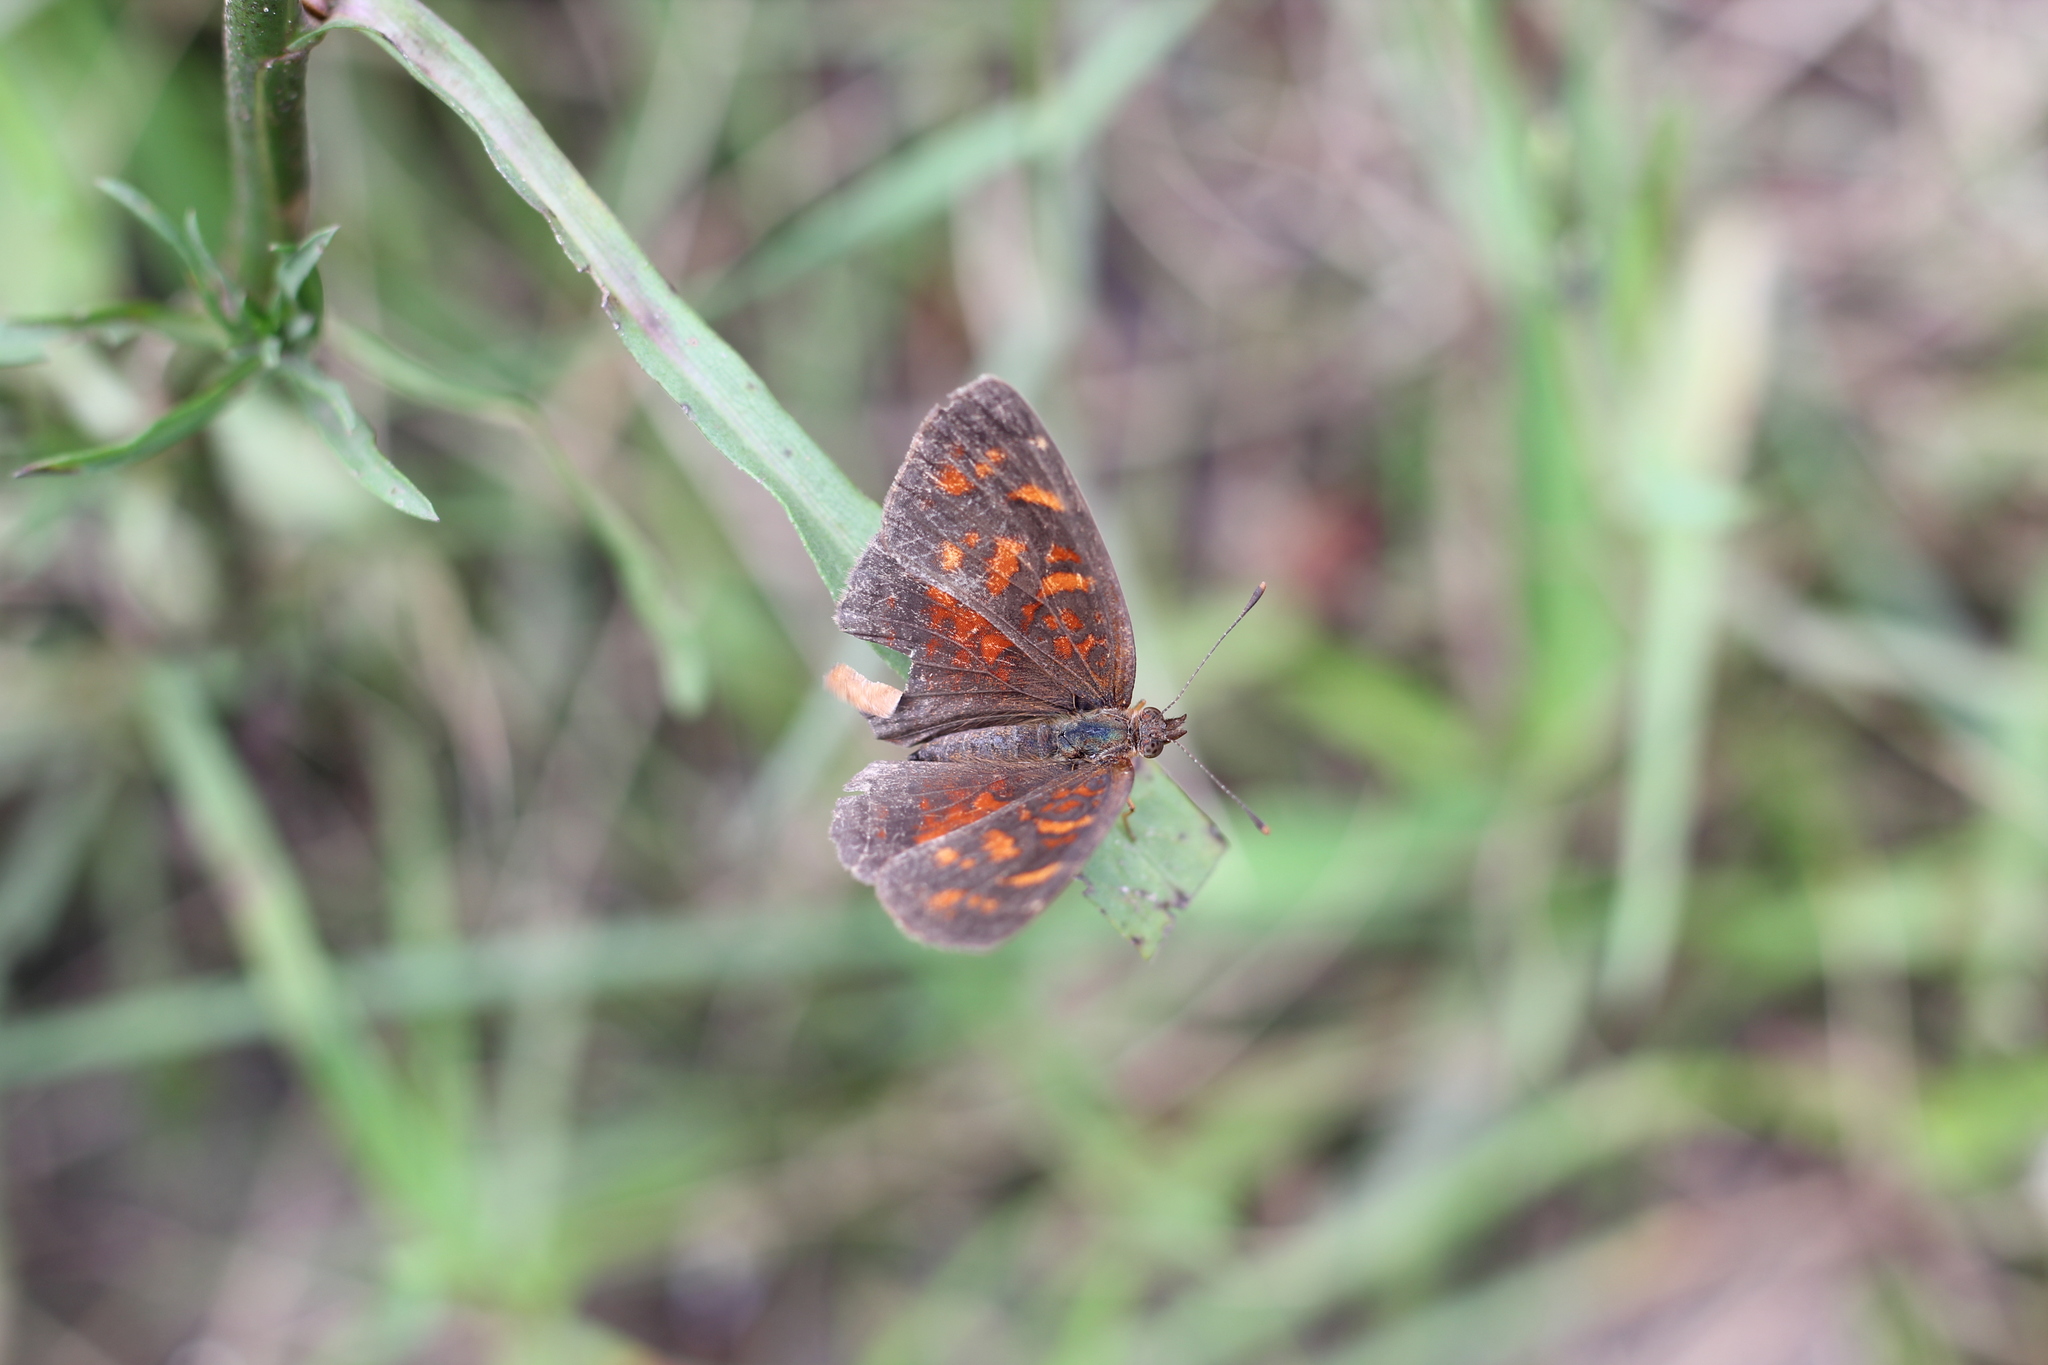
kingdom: Animalia
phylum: Arthropoda
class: Insecta
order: Lepidoptera
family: Nymphalidae
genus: Ortilia
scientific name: Ortilia velica
